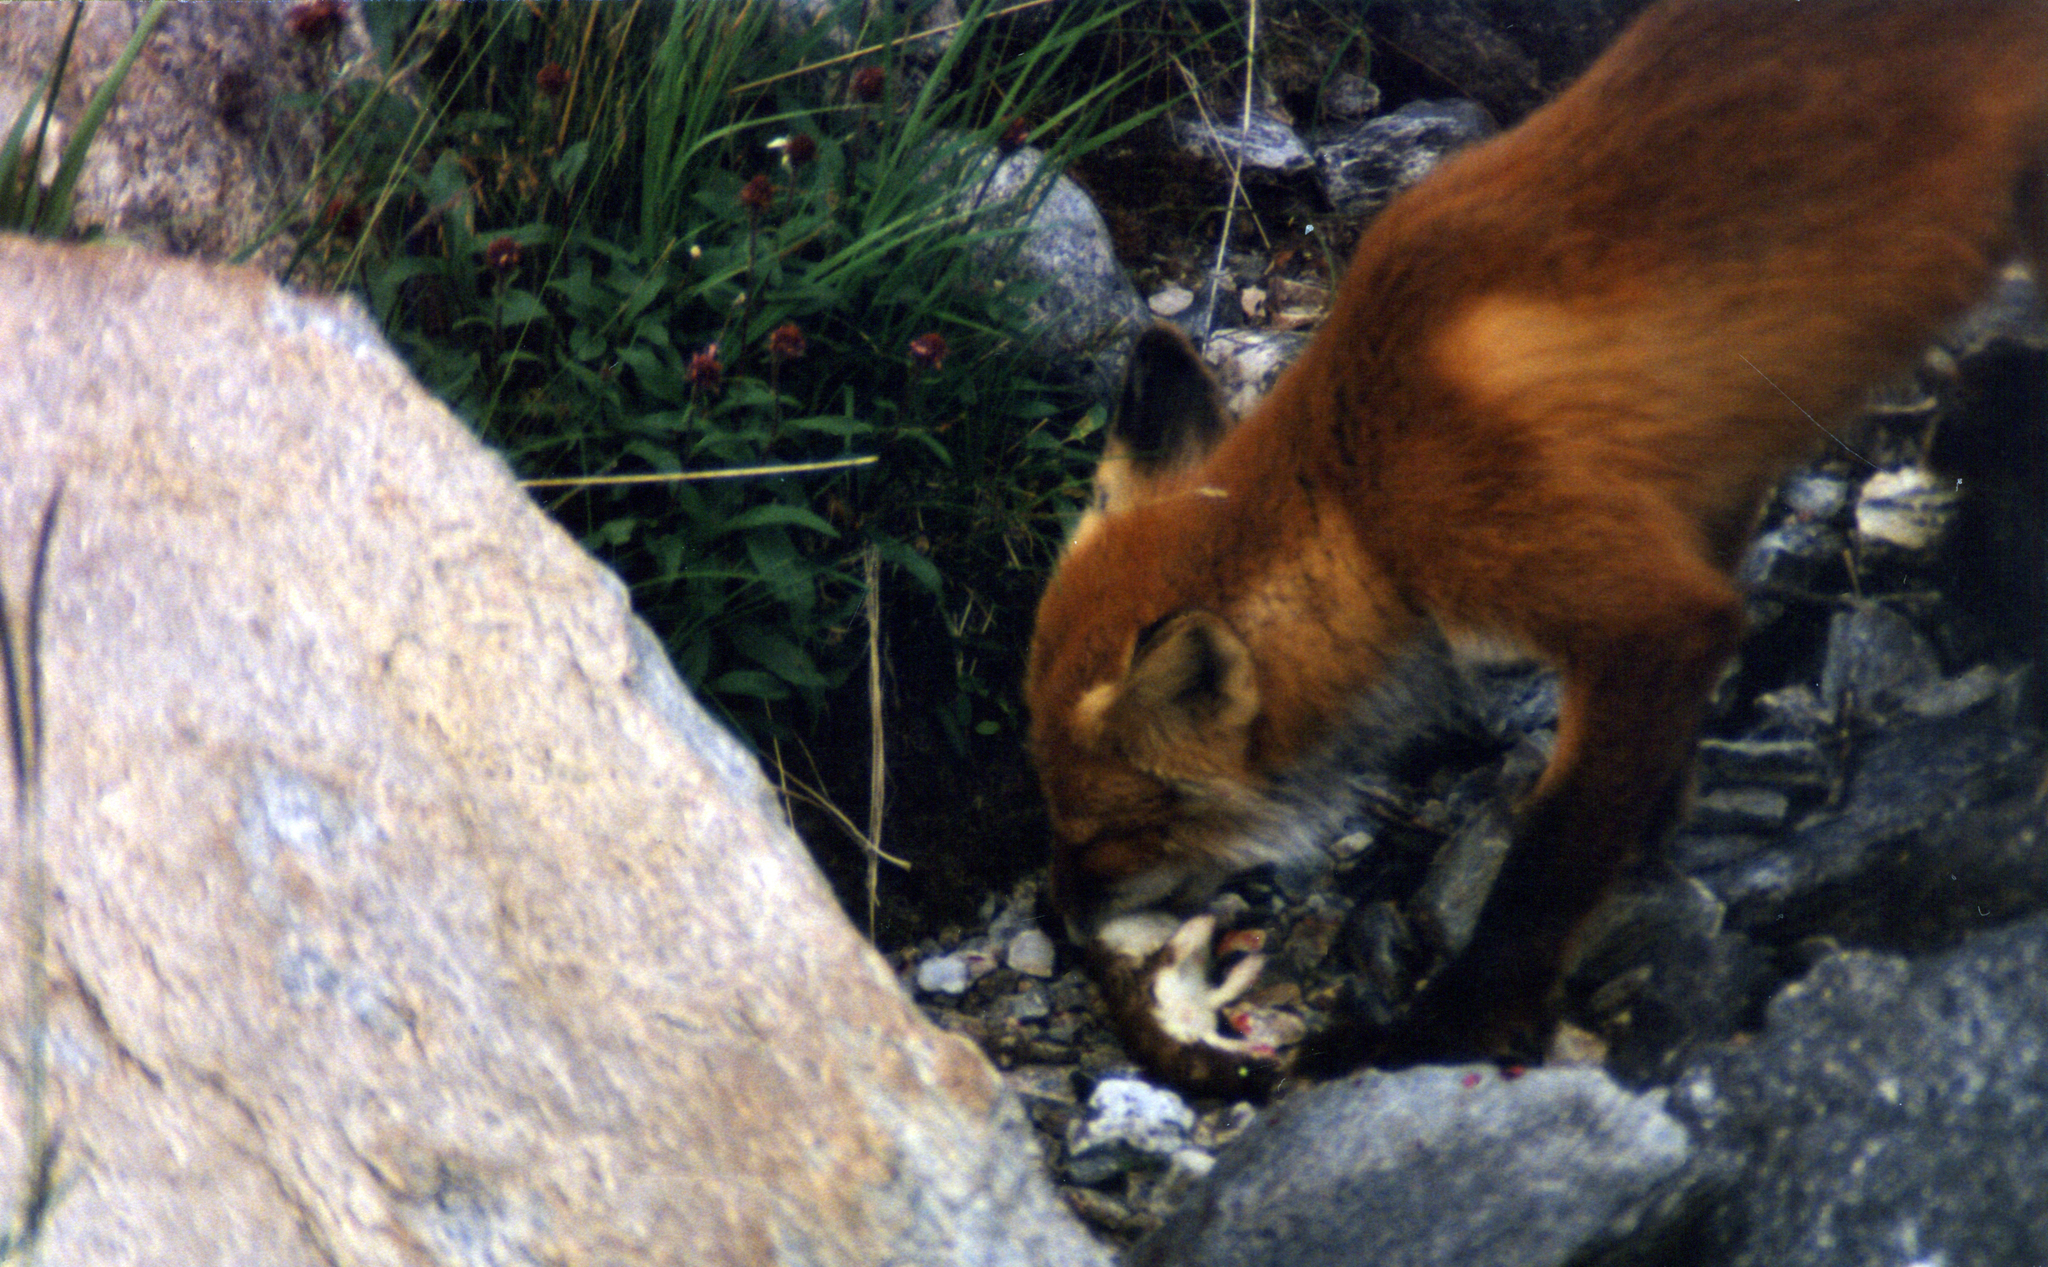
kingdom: Animalia
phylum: Chordata
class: Mammalia
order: Carnivora
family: Canidae
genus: Vulpes
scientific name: Vulpes vulpes
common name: Red fox
